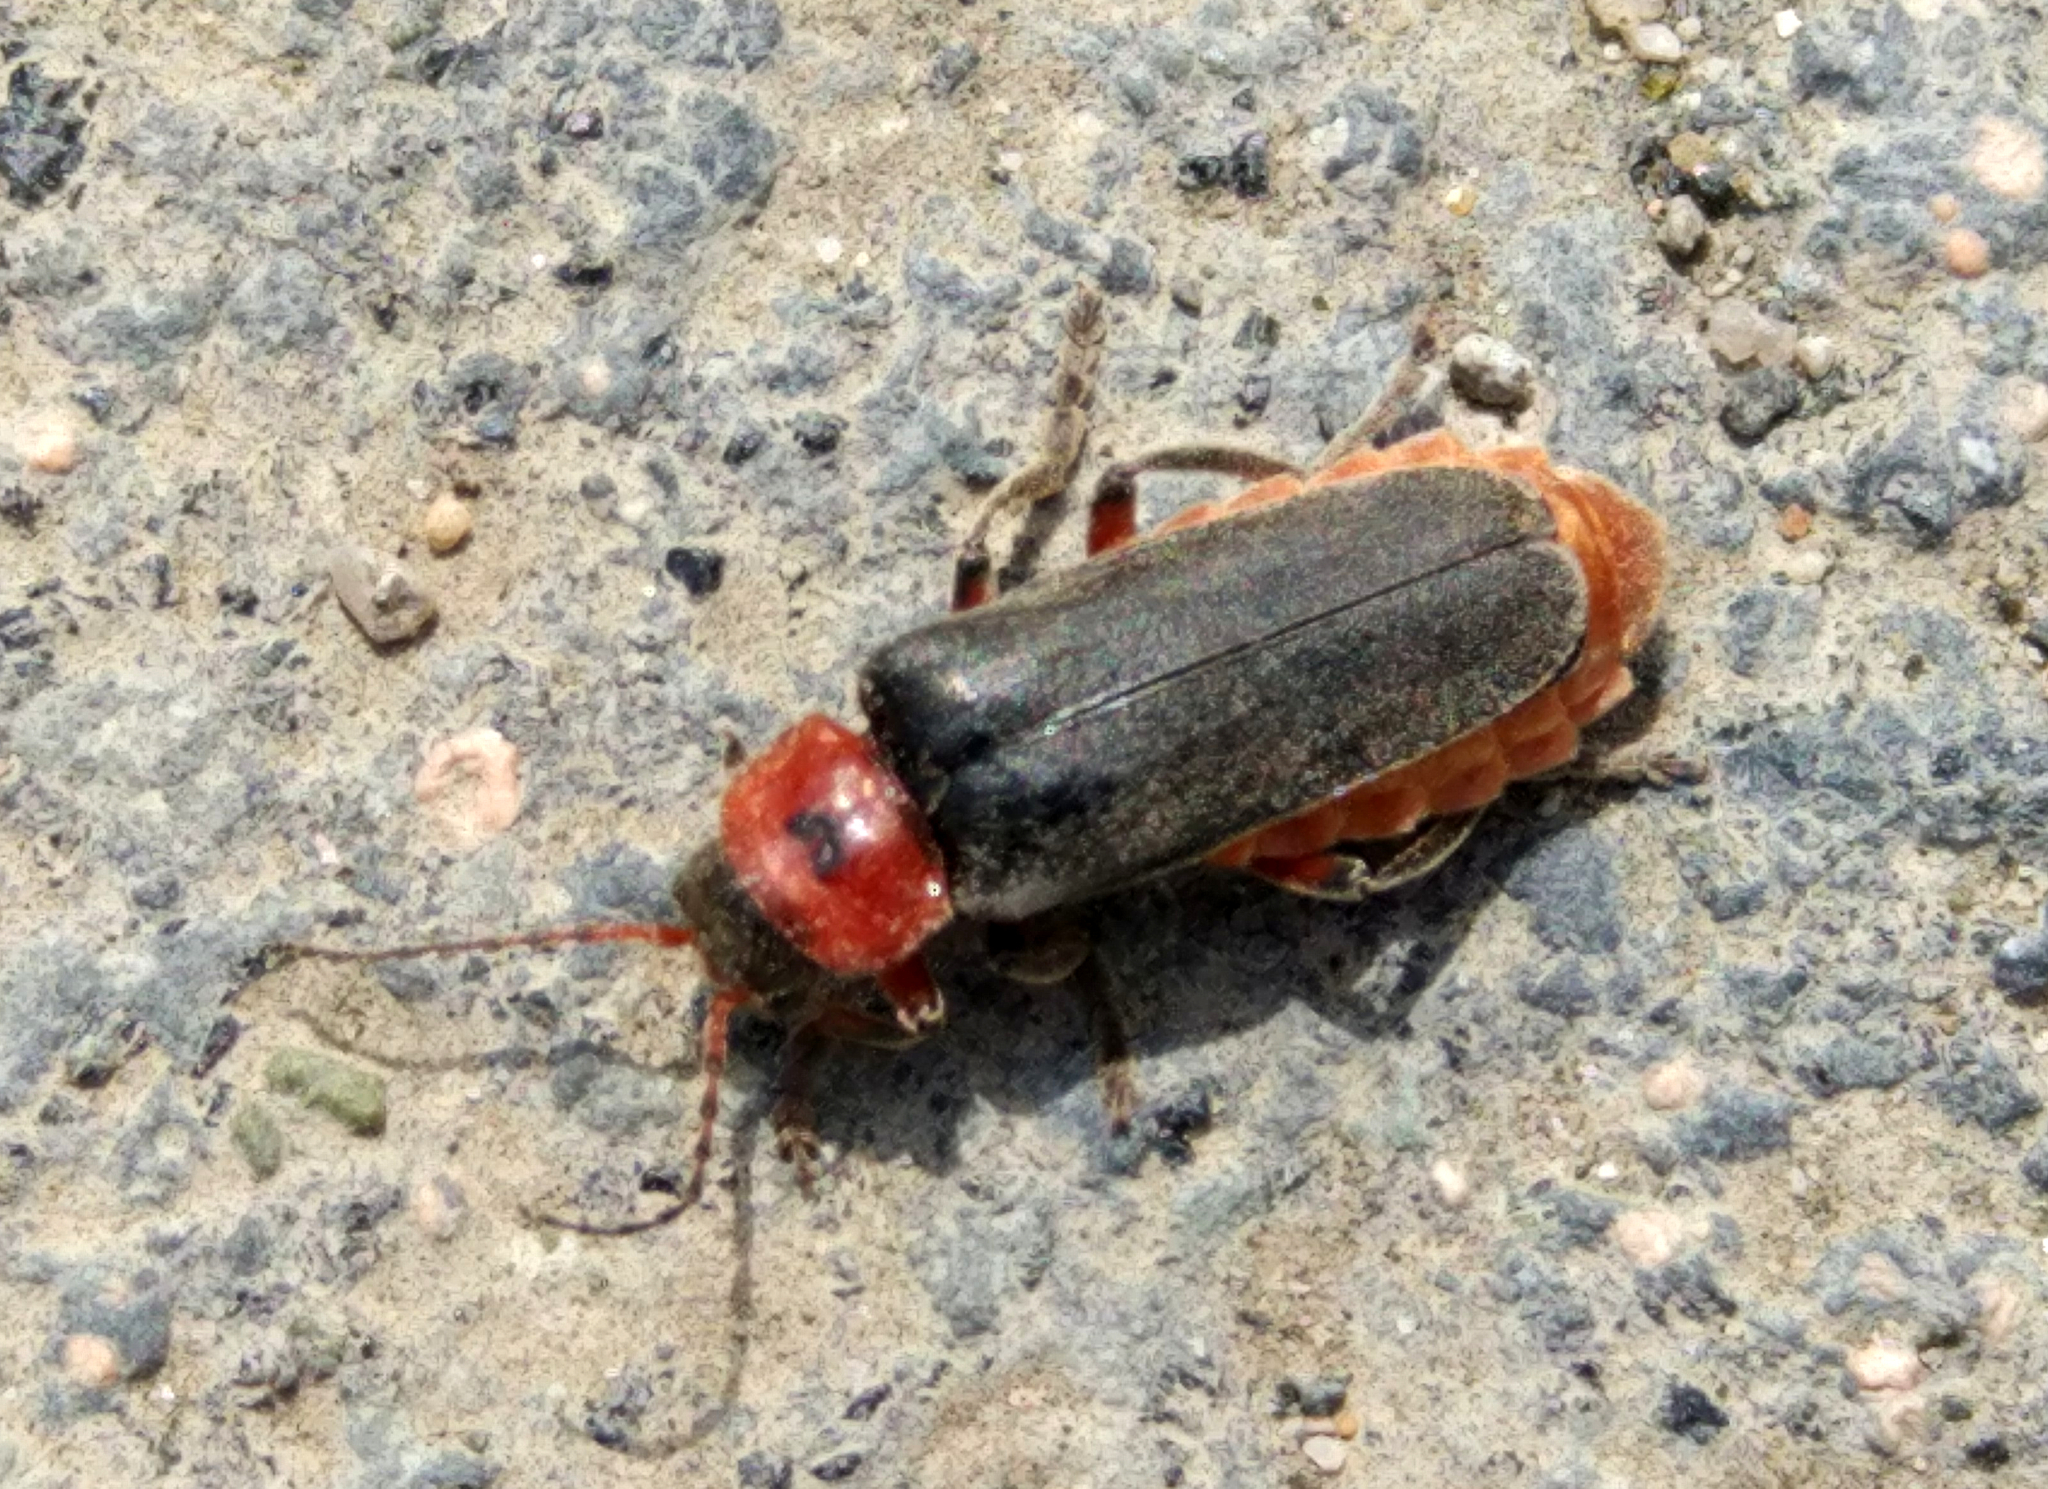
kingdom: Animalia
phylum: Arthropoda
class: Insecta
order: Coleoptera
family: Cantharidae
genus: Cantharis
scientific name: Cantharis rustica
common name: Soldier beetle
